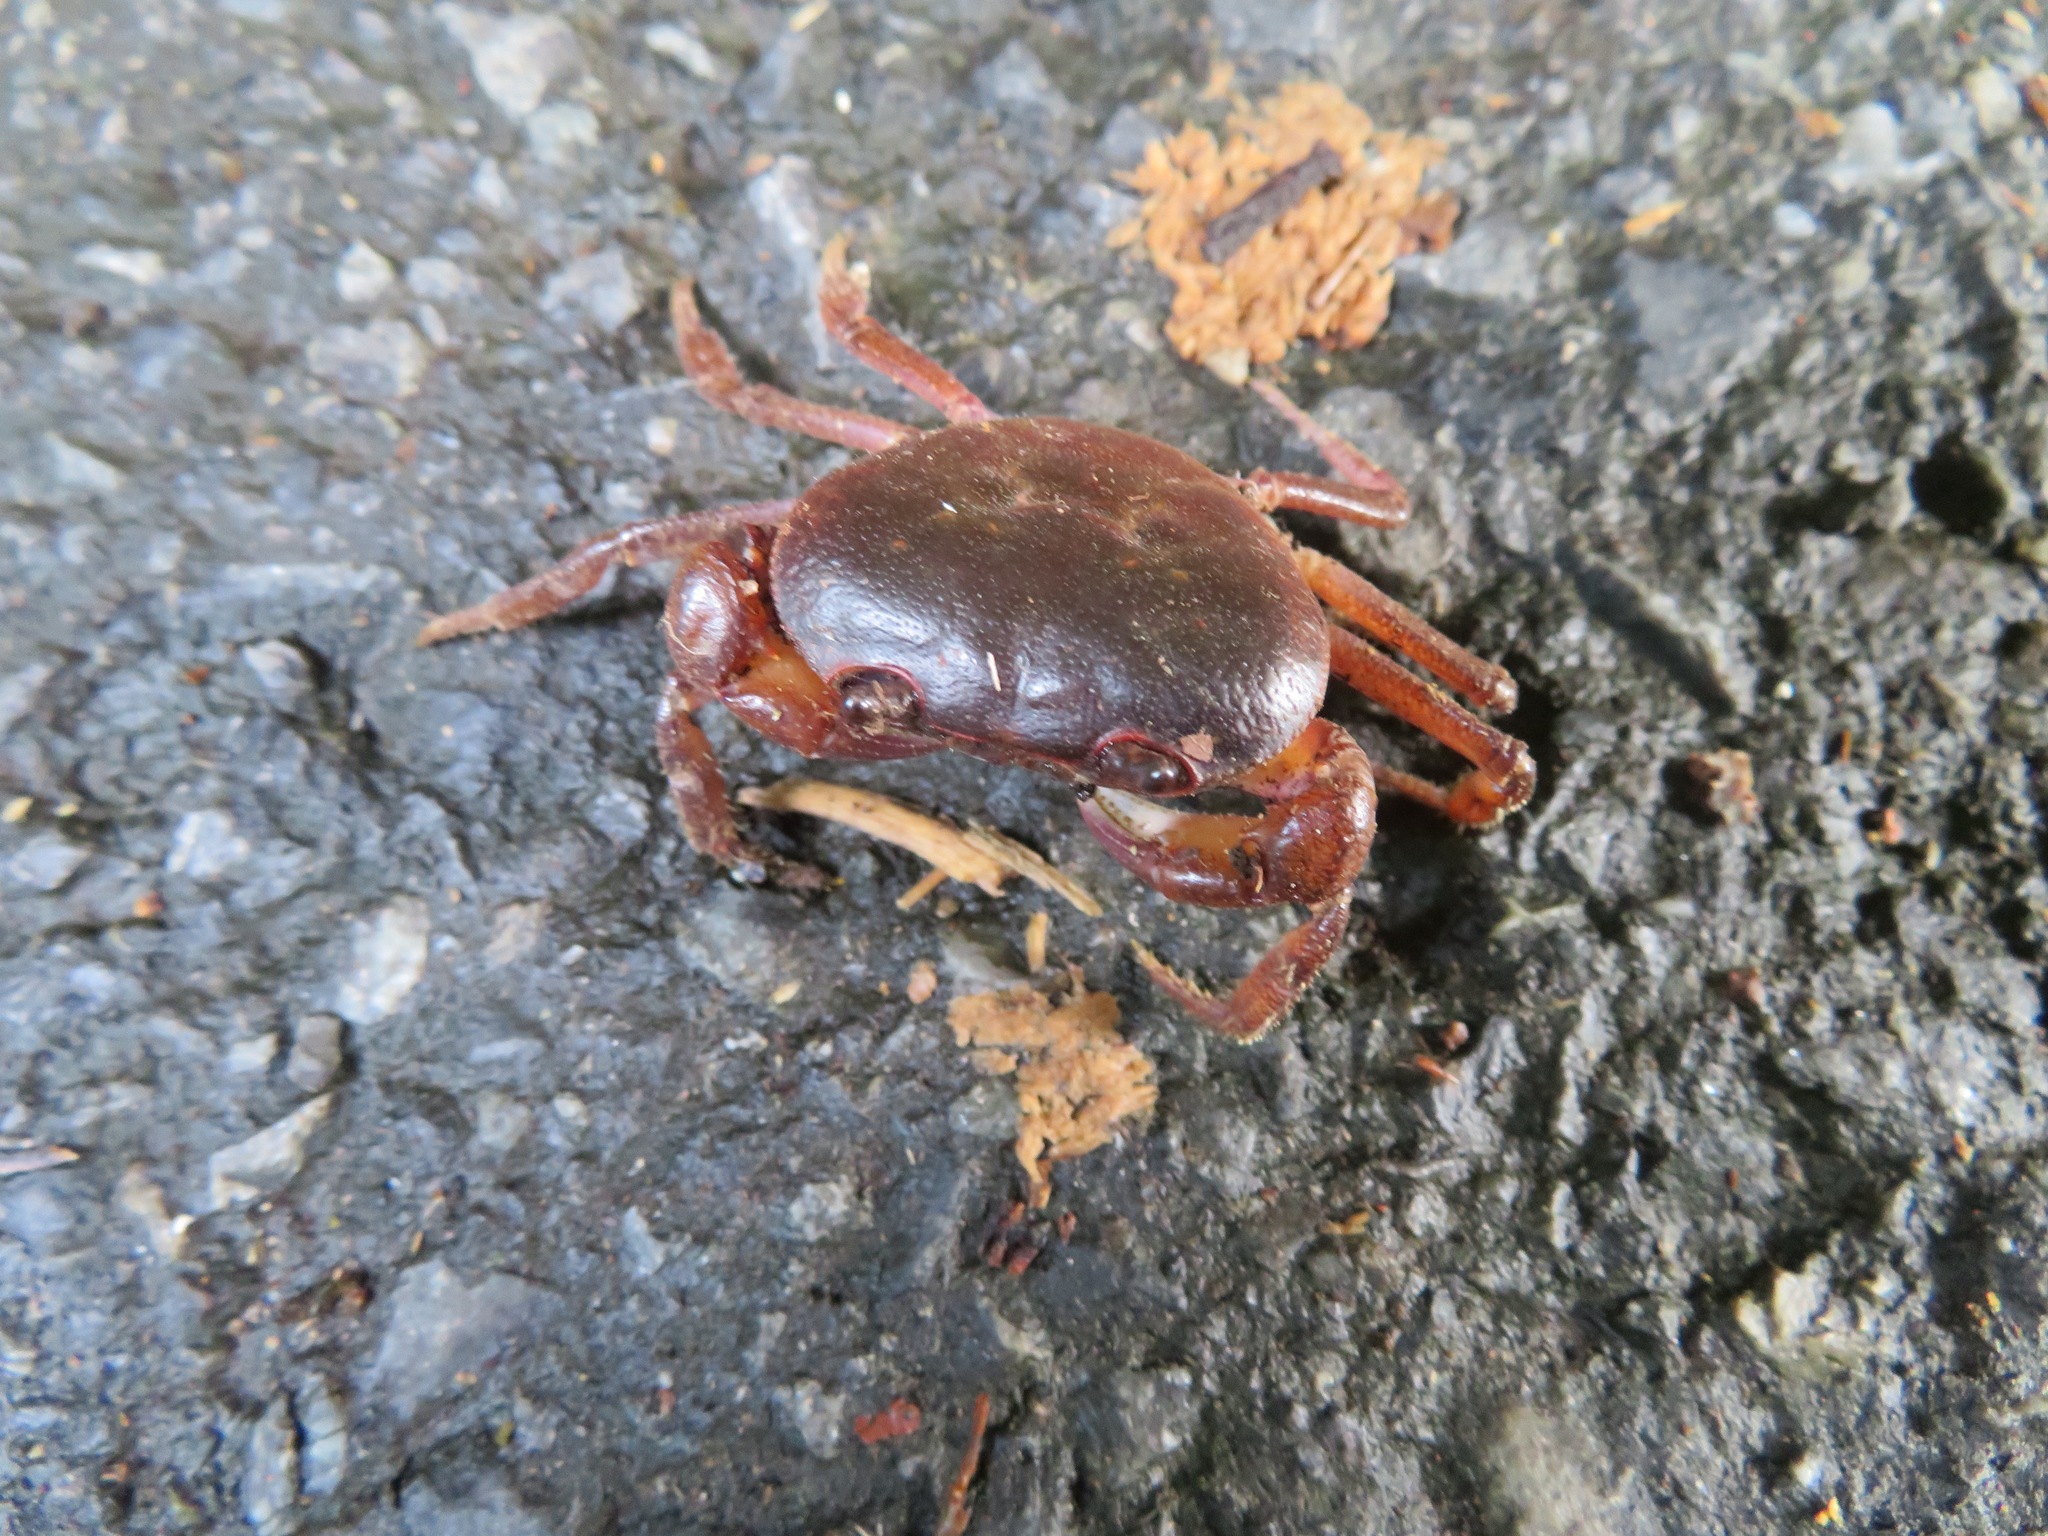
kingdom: Animalia
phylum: Arthropoda
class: Malacostraca
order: Decapoda
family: Potamidae
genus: Geothelphusa
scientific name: Geothelphusa dehaani
